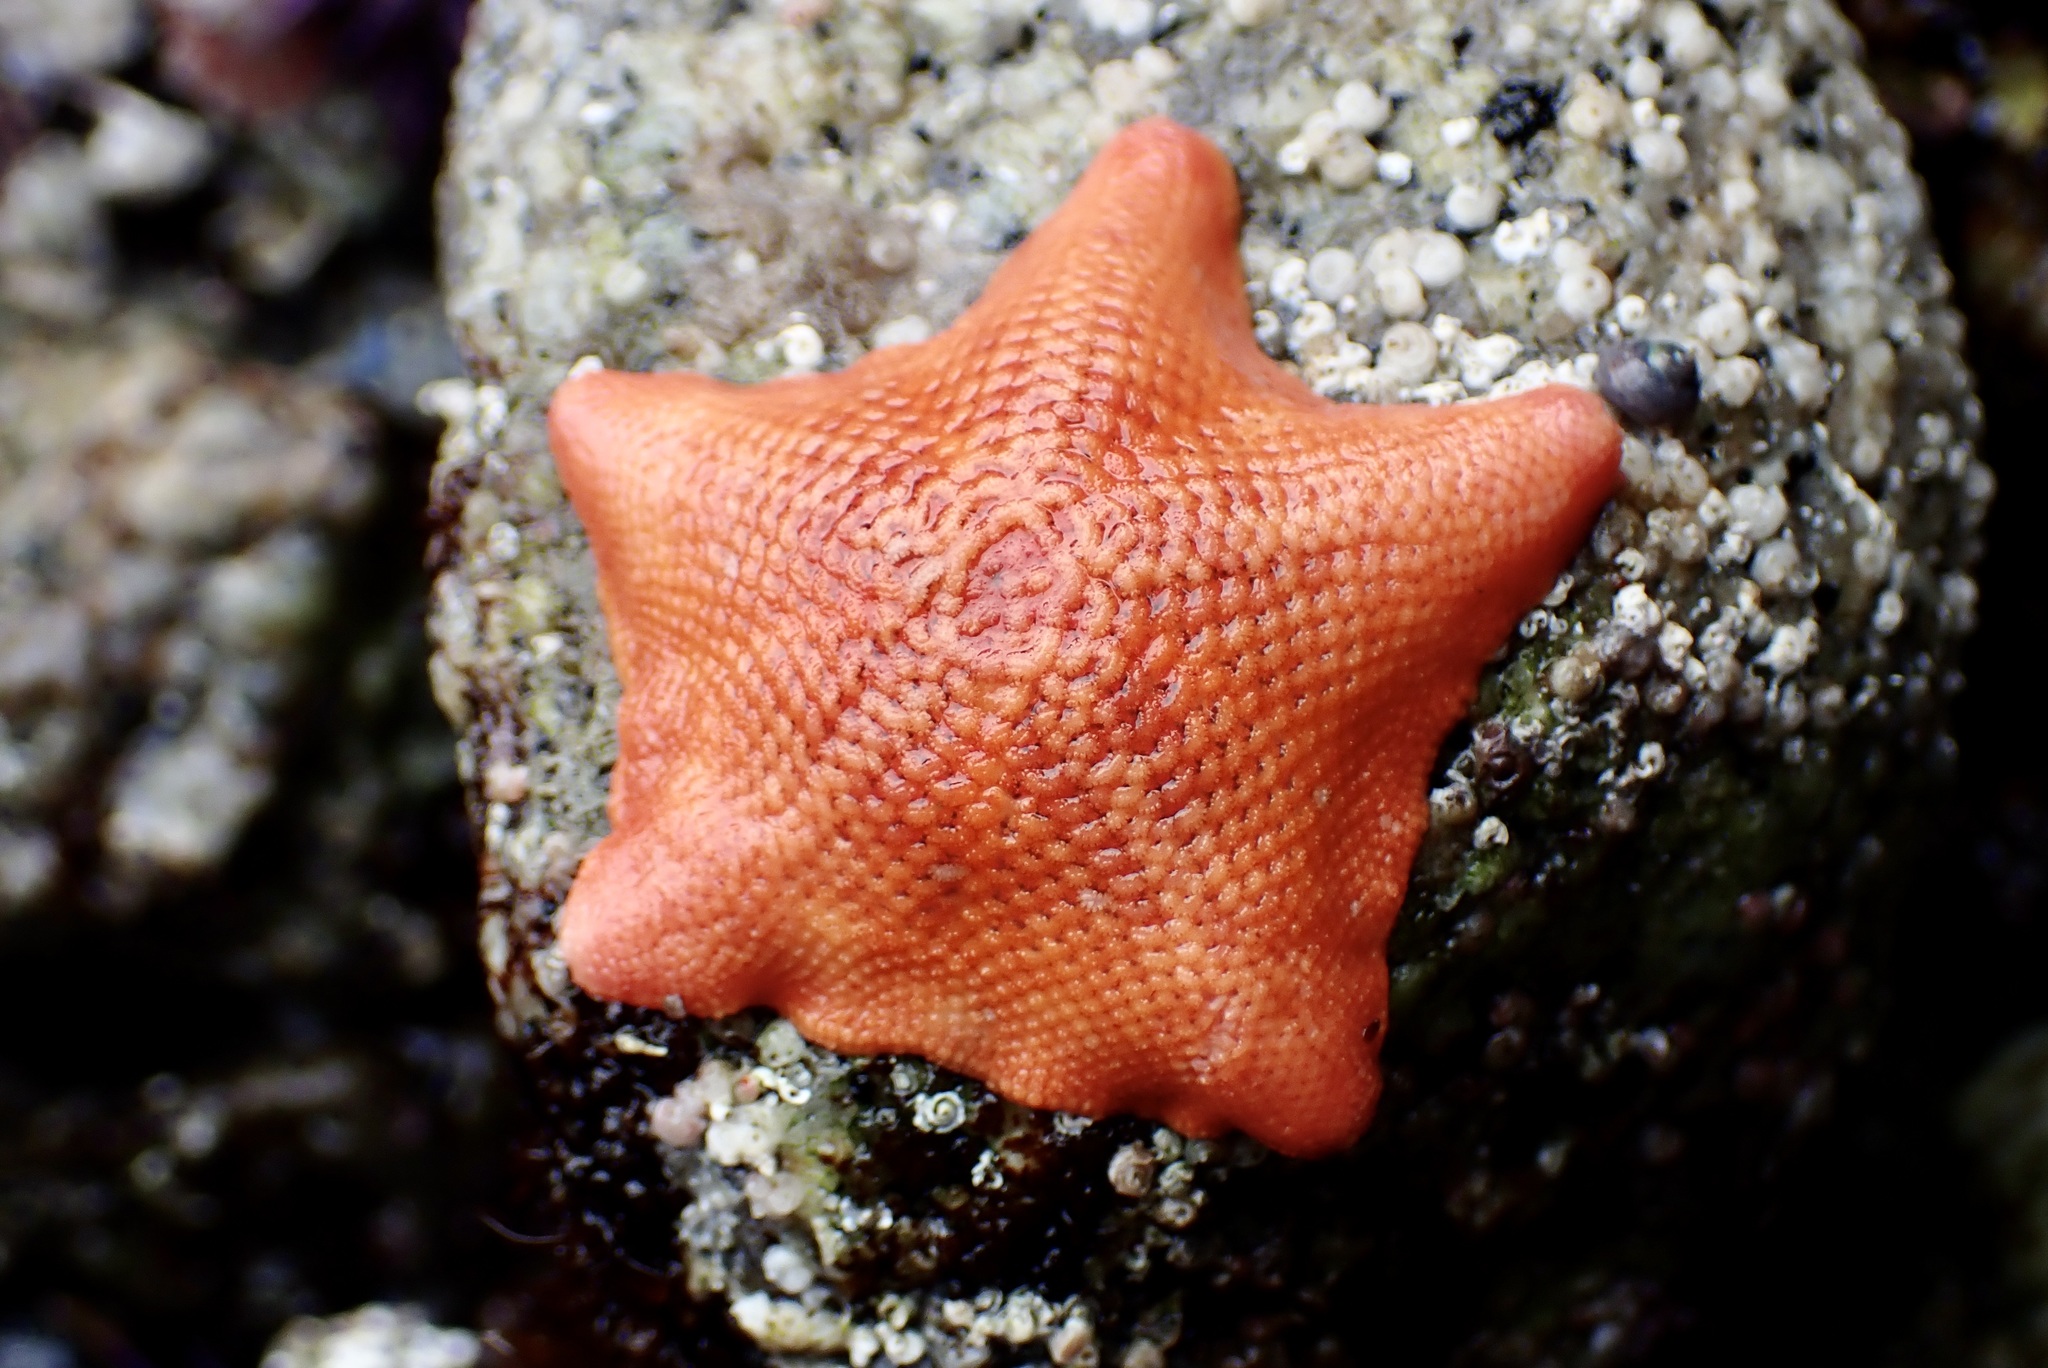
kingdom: Animalia
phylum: Echinodermata
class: Asteroidea
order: Valvatida
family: Asterinidae
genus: Patiria
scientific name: Patiria miniata
